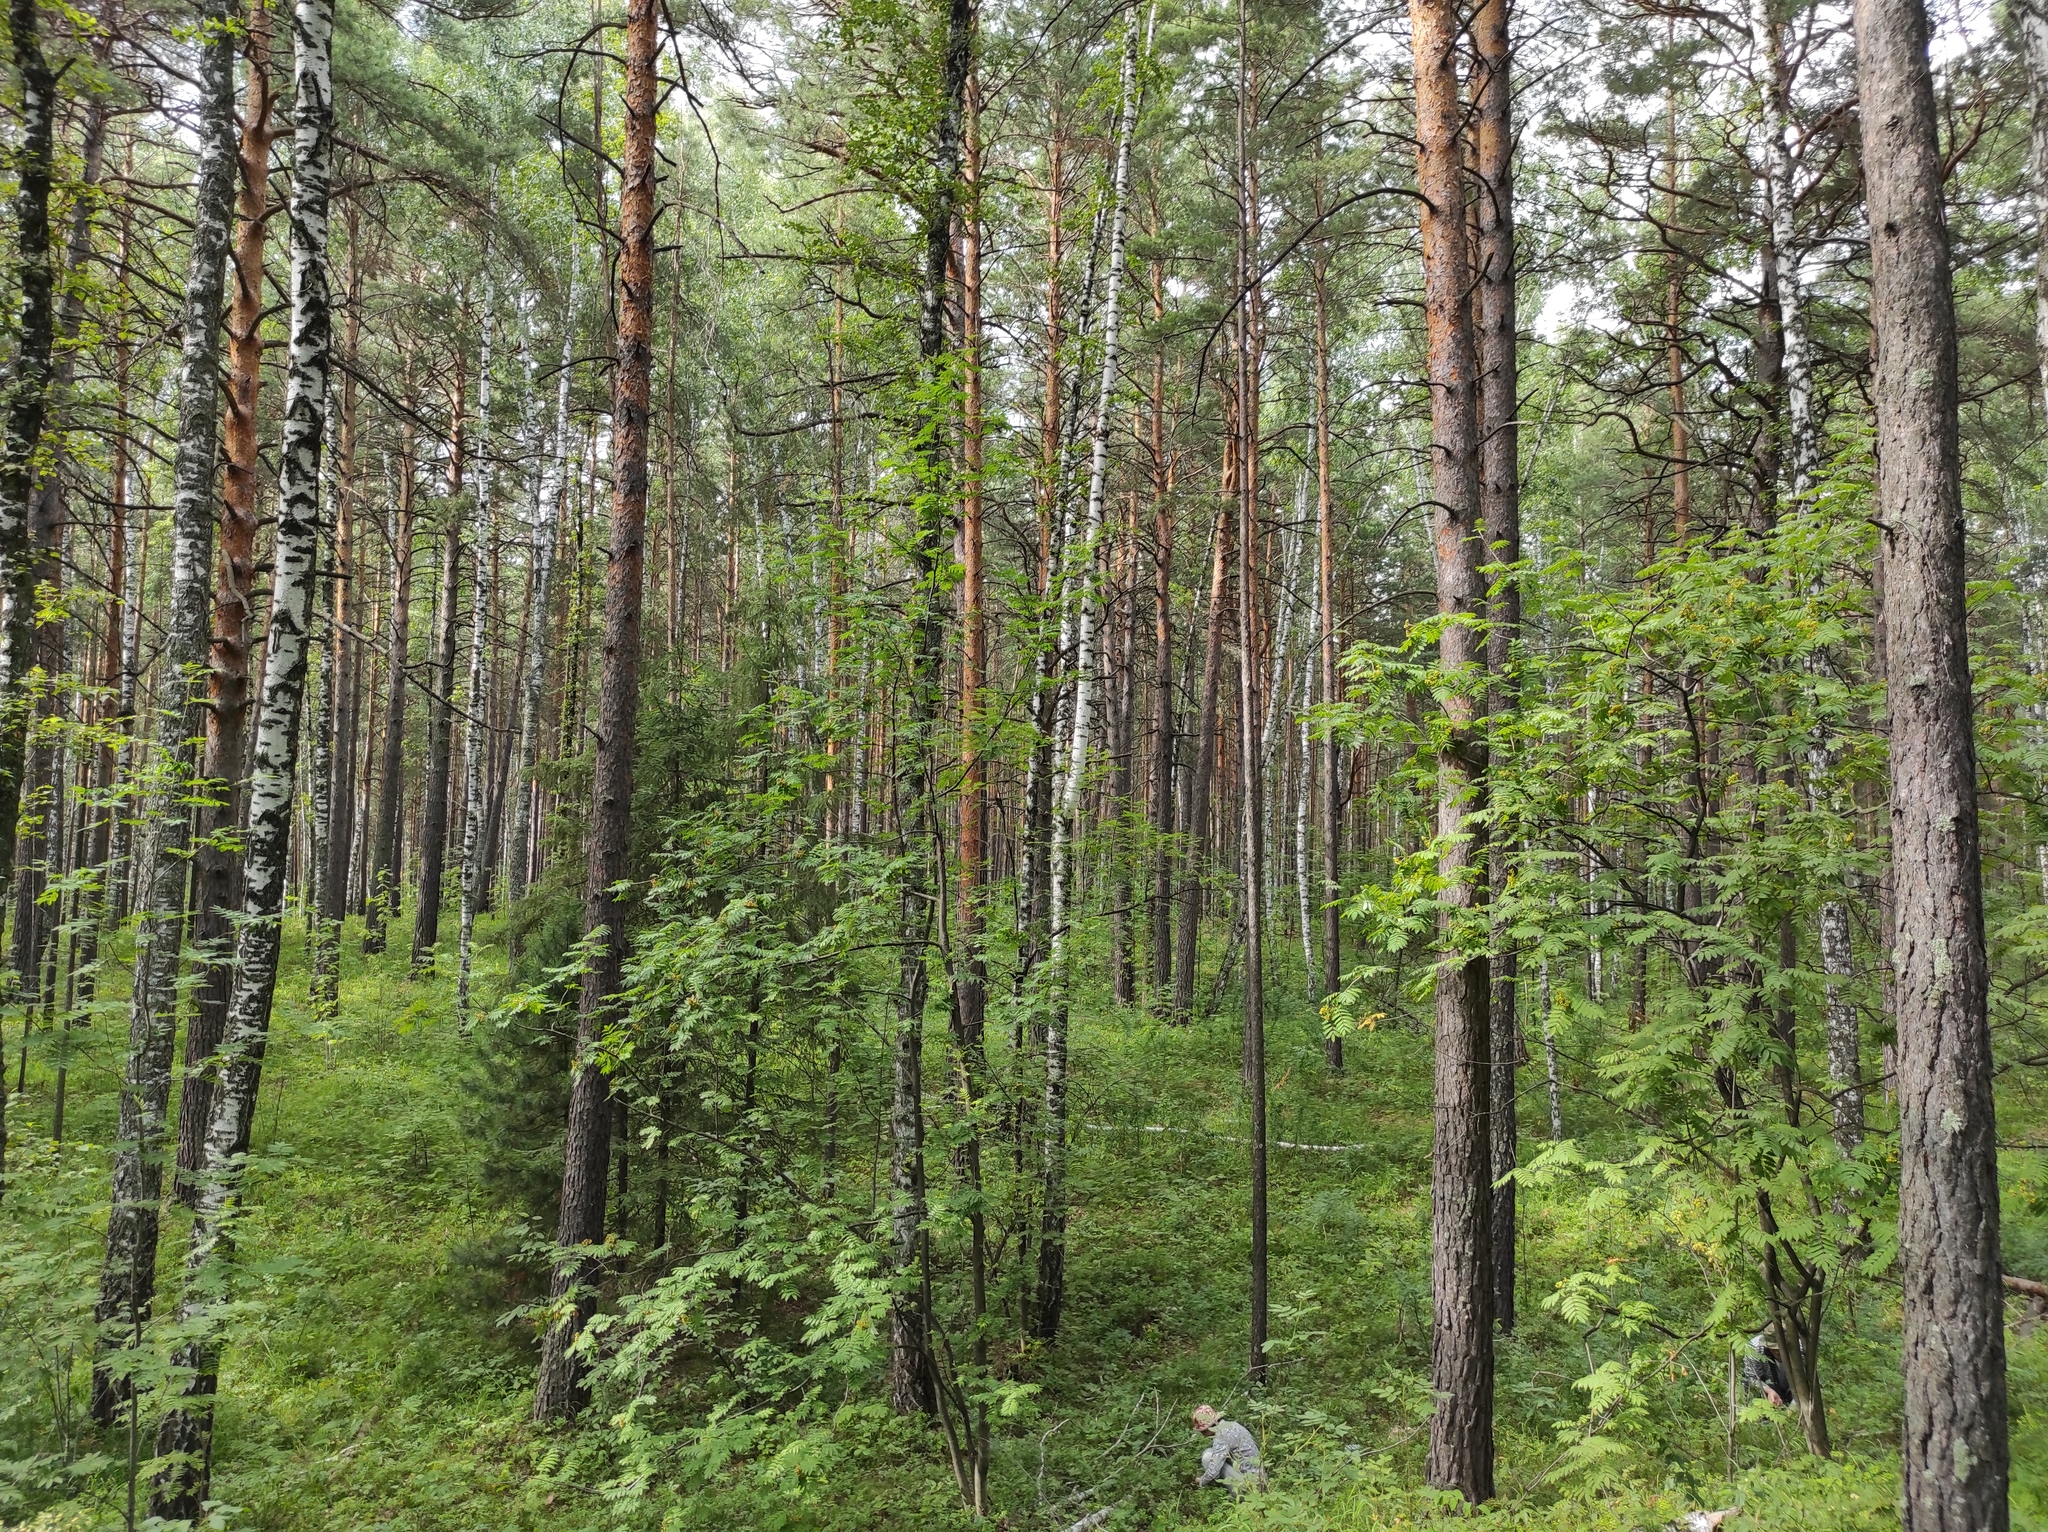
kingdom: Plantae
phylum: Tracheophyta
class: Magnoliopsida
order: Fagales
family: Betulaceae
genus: Betula
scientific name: Betula pendula
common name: Silver birch
